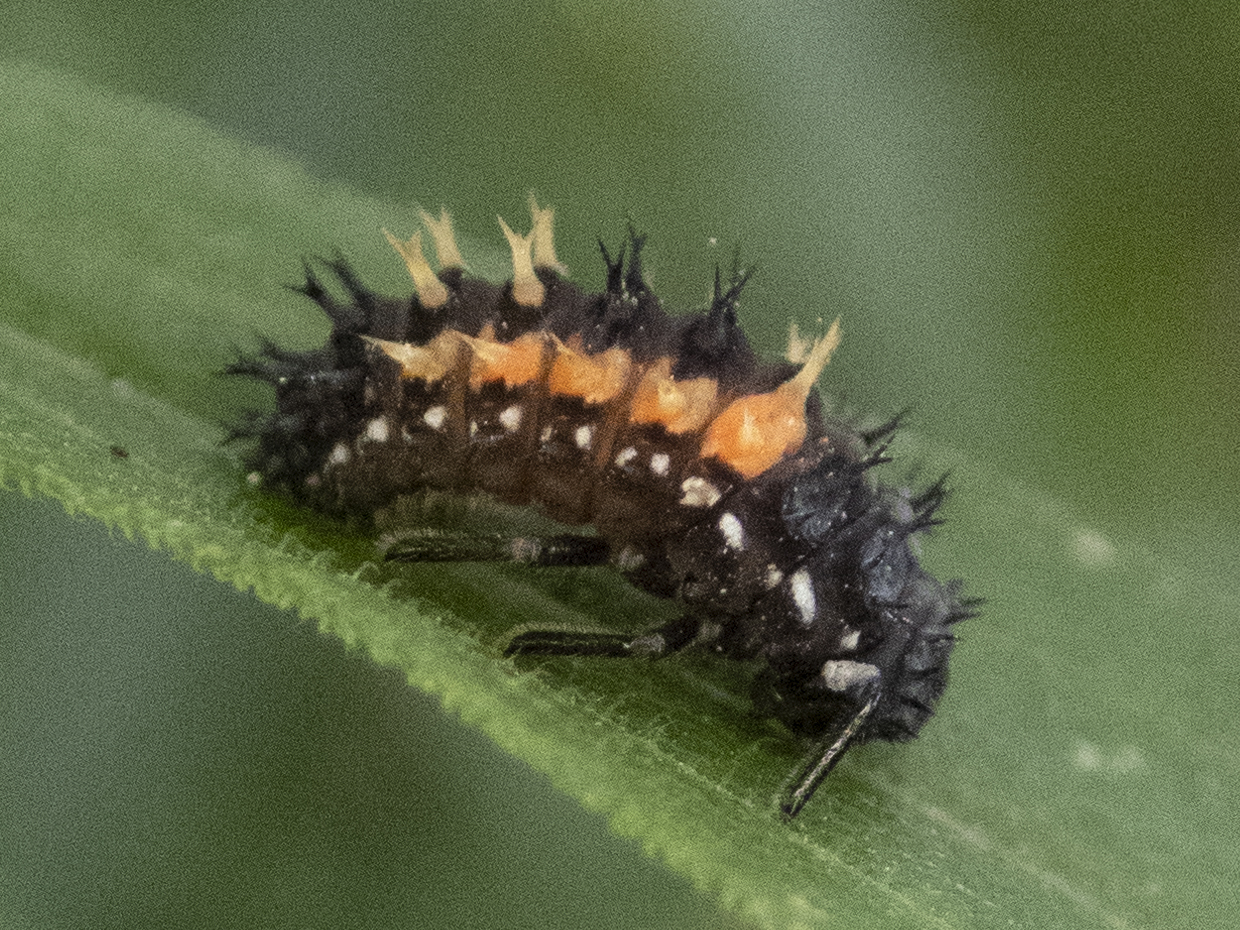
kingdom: Animalia
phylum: Arthropoda
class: Insecta
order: Coleoptera
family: Coccinellidae
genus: Harmonia
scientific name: Harmonia axyridis
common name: Harlequin ladybird
